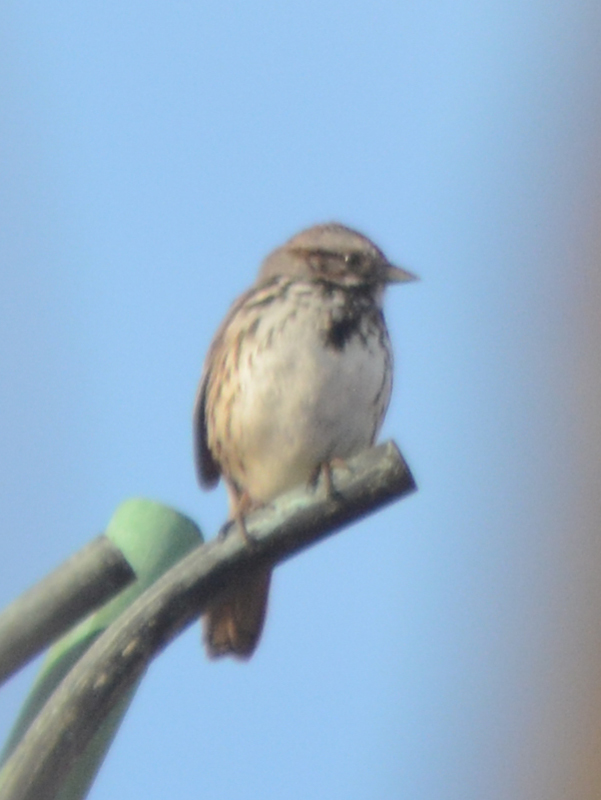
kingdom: Animalia
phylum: Chordata
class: Aves
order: Passeriformes
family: Passerellidae
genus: Melospiza
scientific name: Melospiza melodia
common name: Song sparrow
